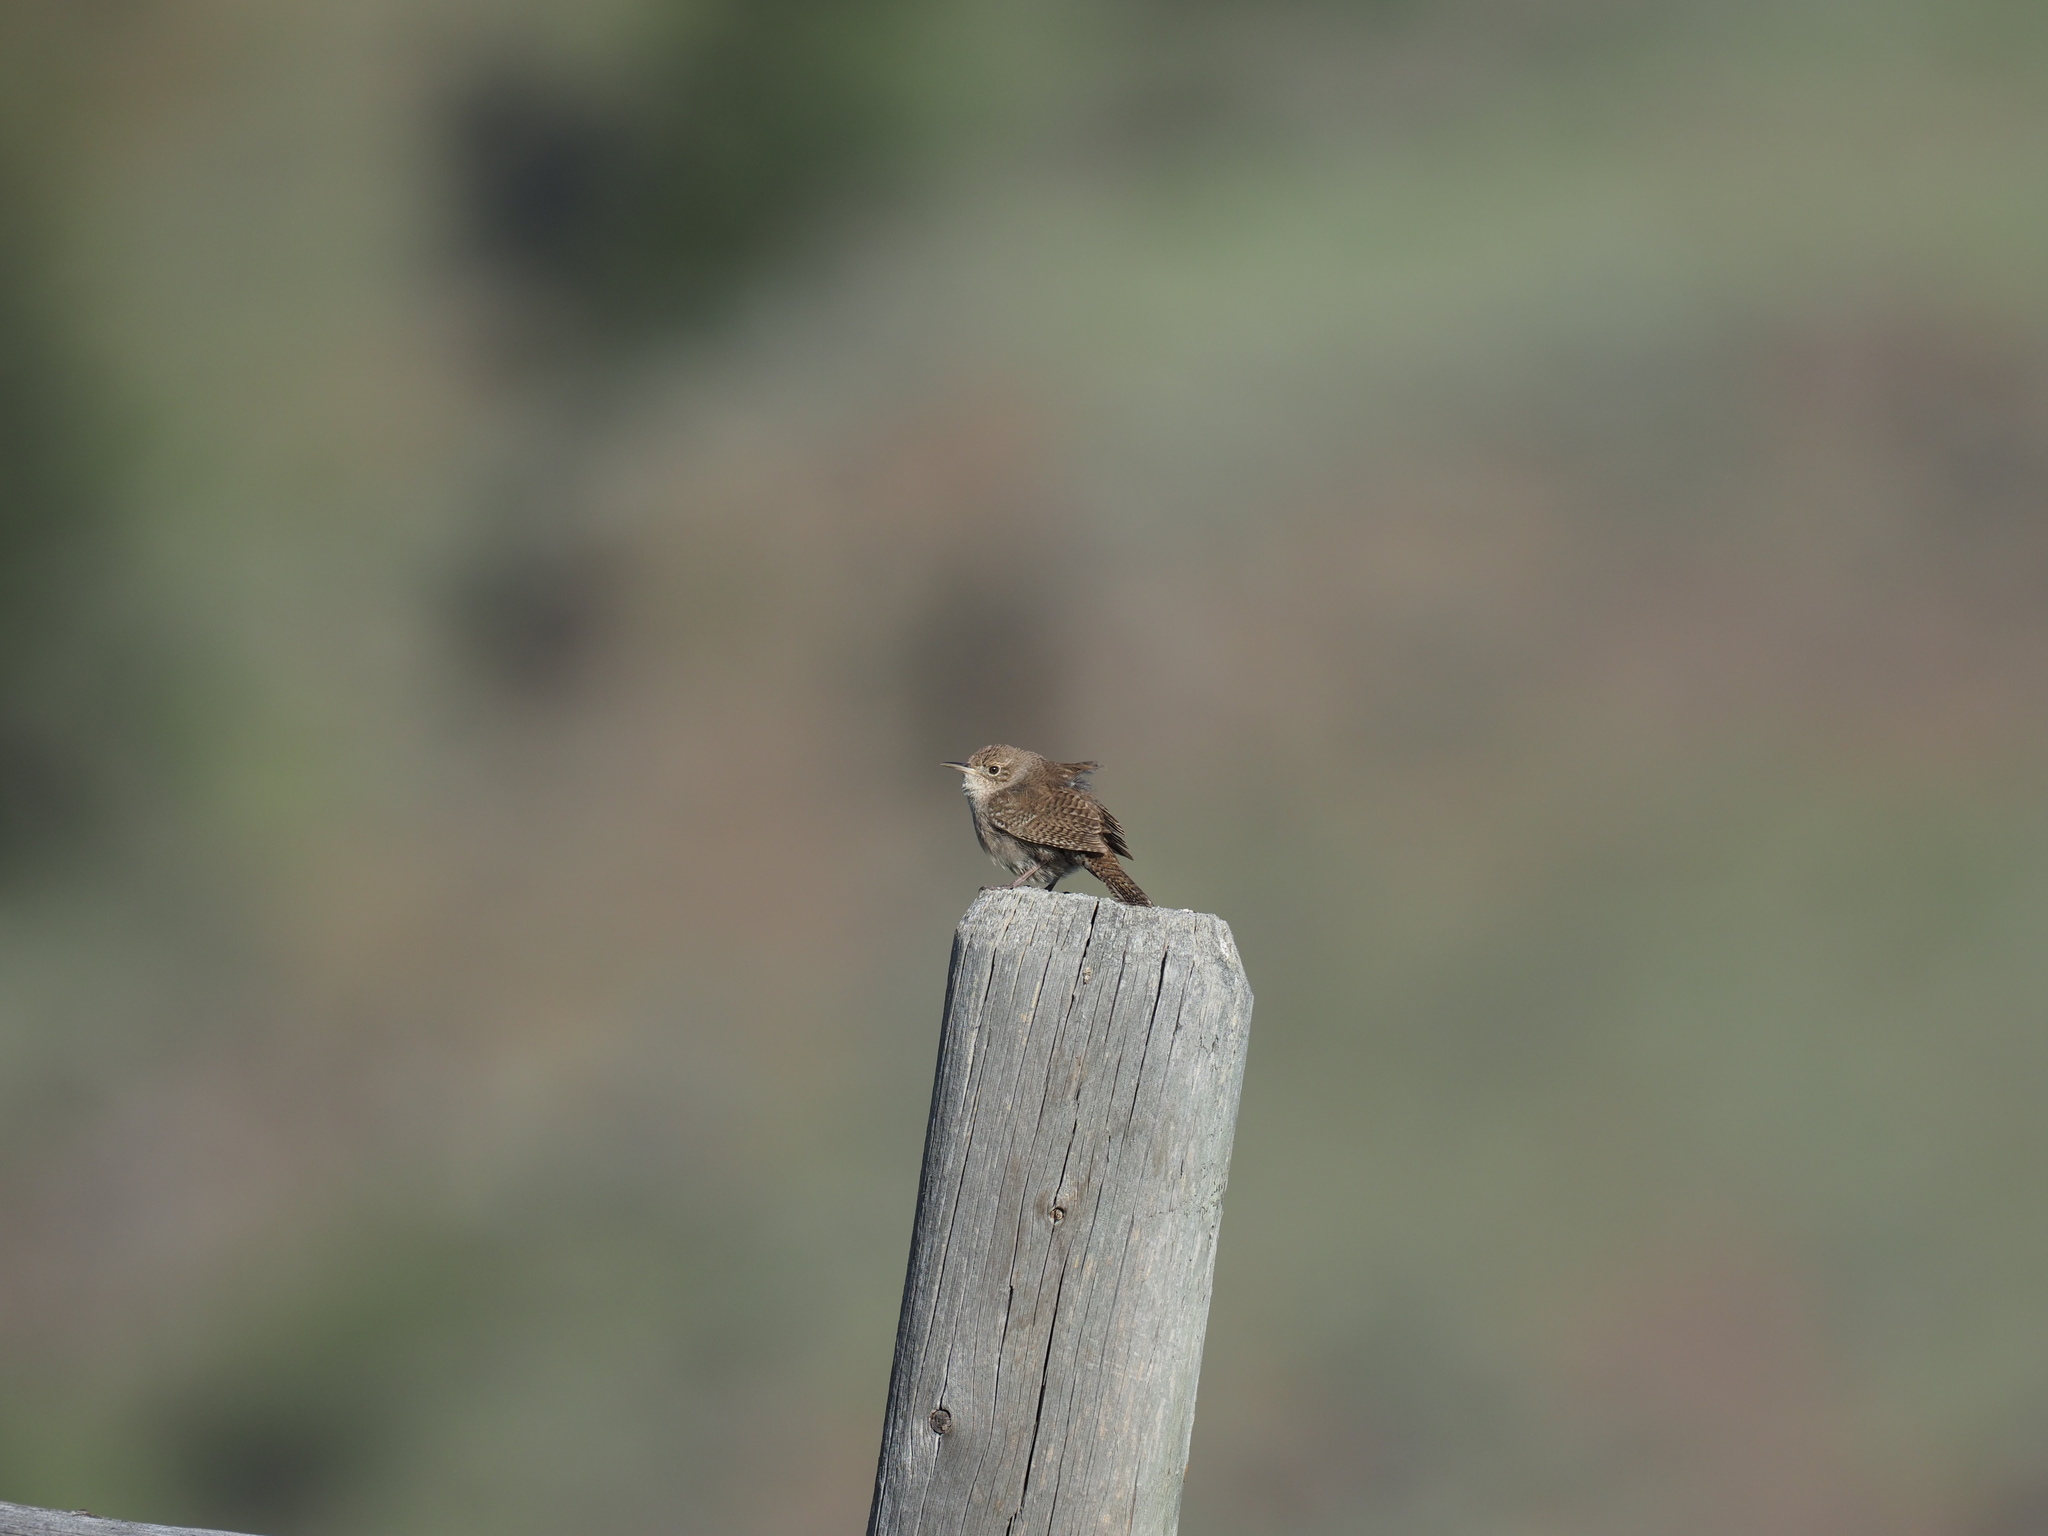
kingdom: Animalia
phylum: Chordata
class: Aves
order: Passeriformes
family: Troglodytidae
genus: Troglodytes
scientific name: Troglodytes aedon
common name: House wren
